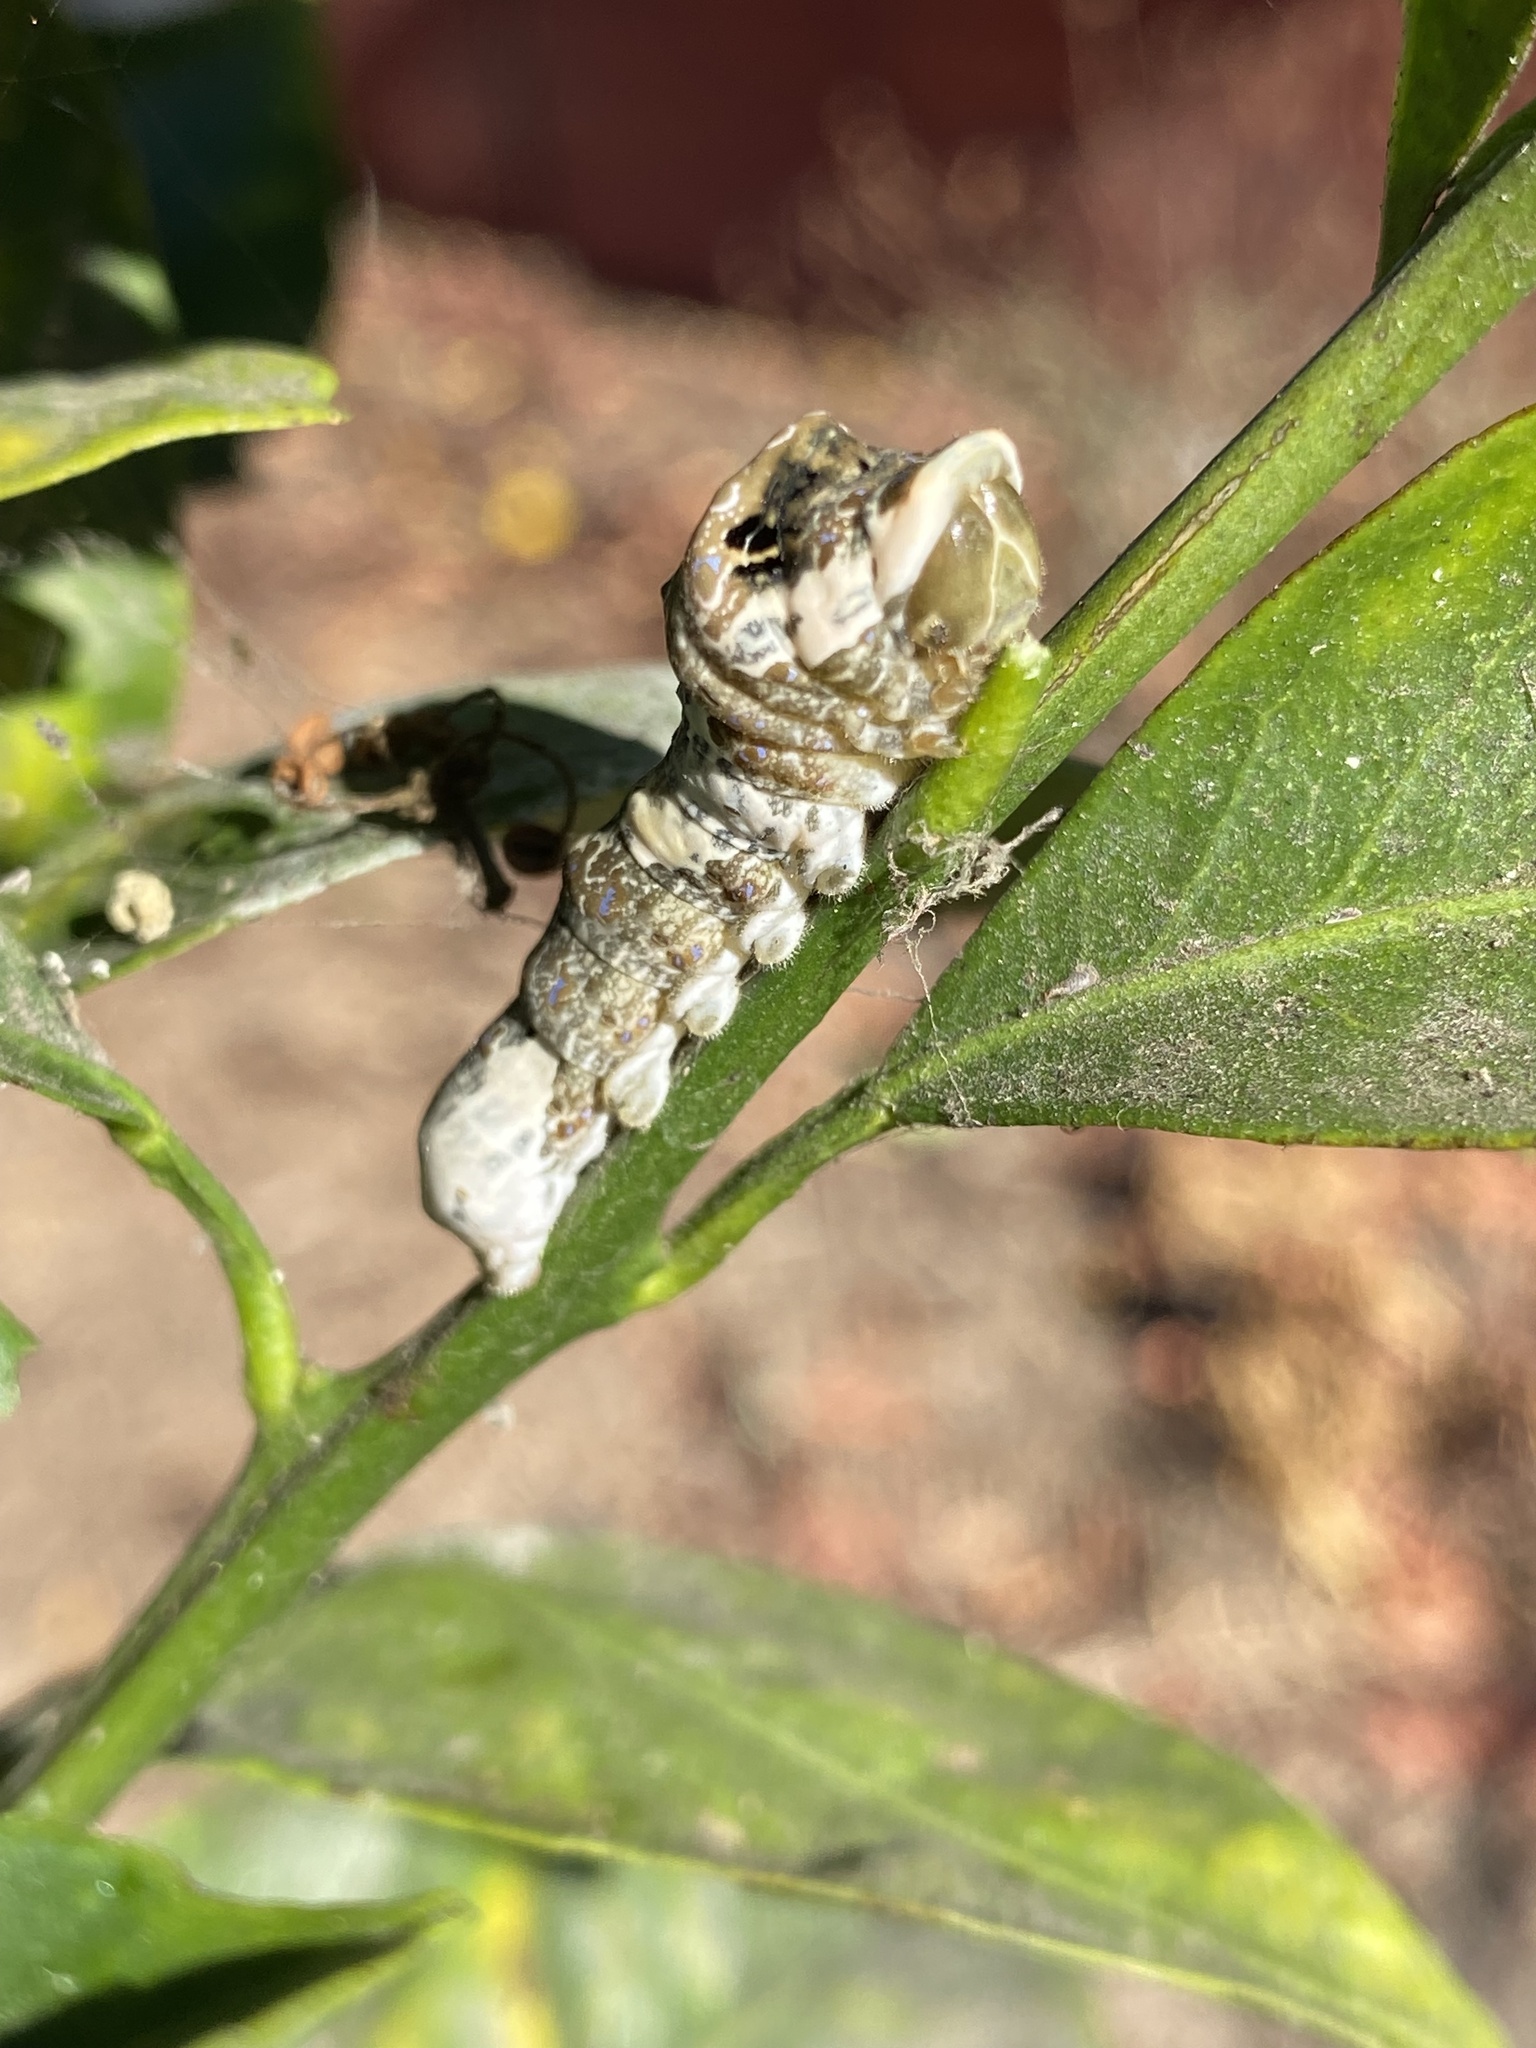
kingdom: Animalia
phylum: Arthropoda
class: Insecta
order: Lepidoptera
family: Papilionidae
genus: Papilio
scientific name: Papilio rumiko
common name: Western giant swallowtail
